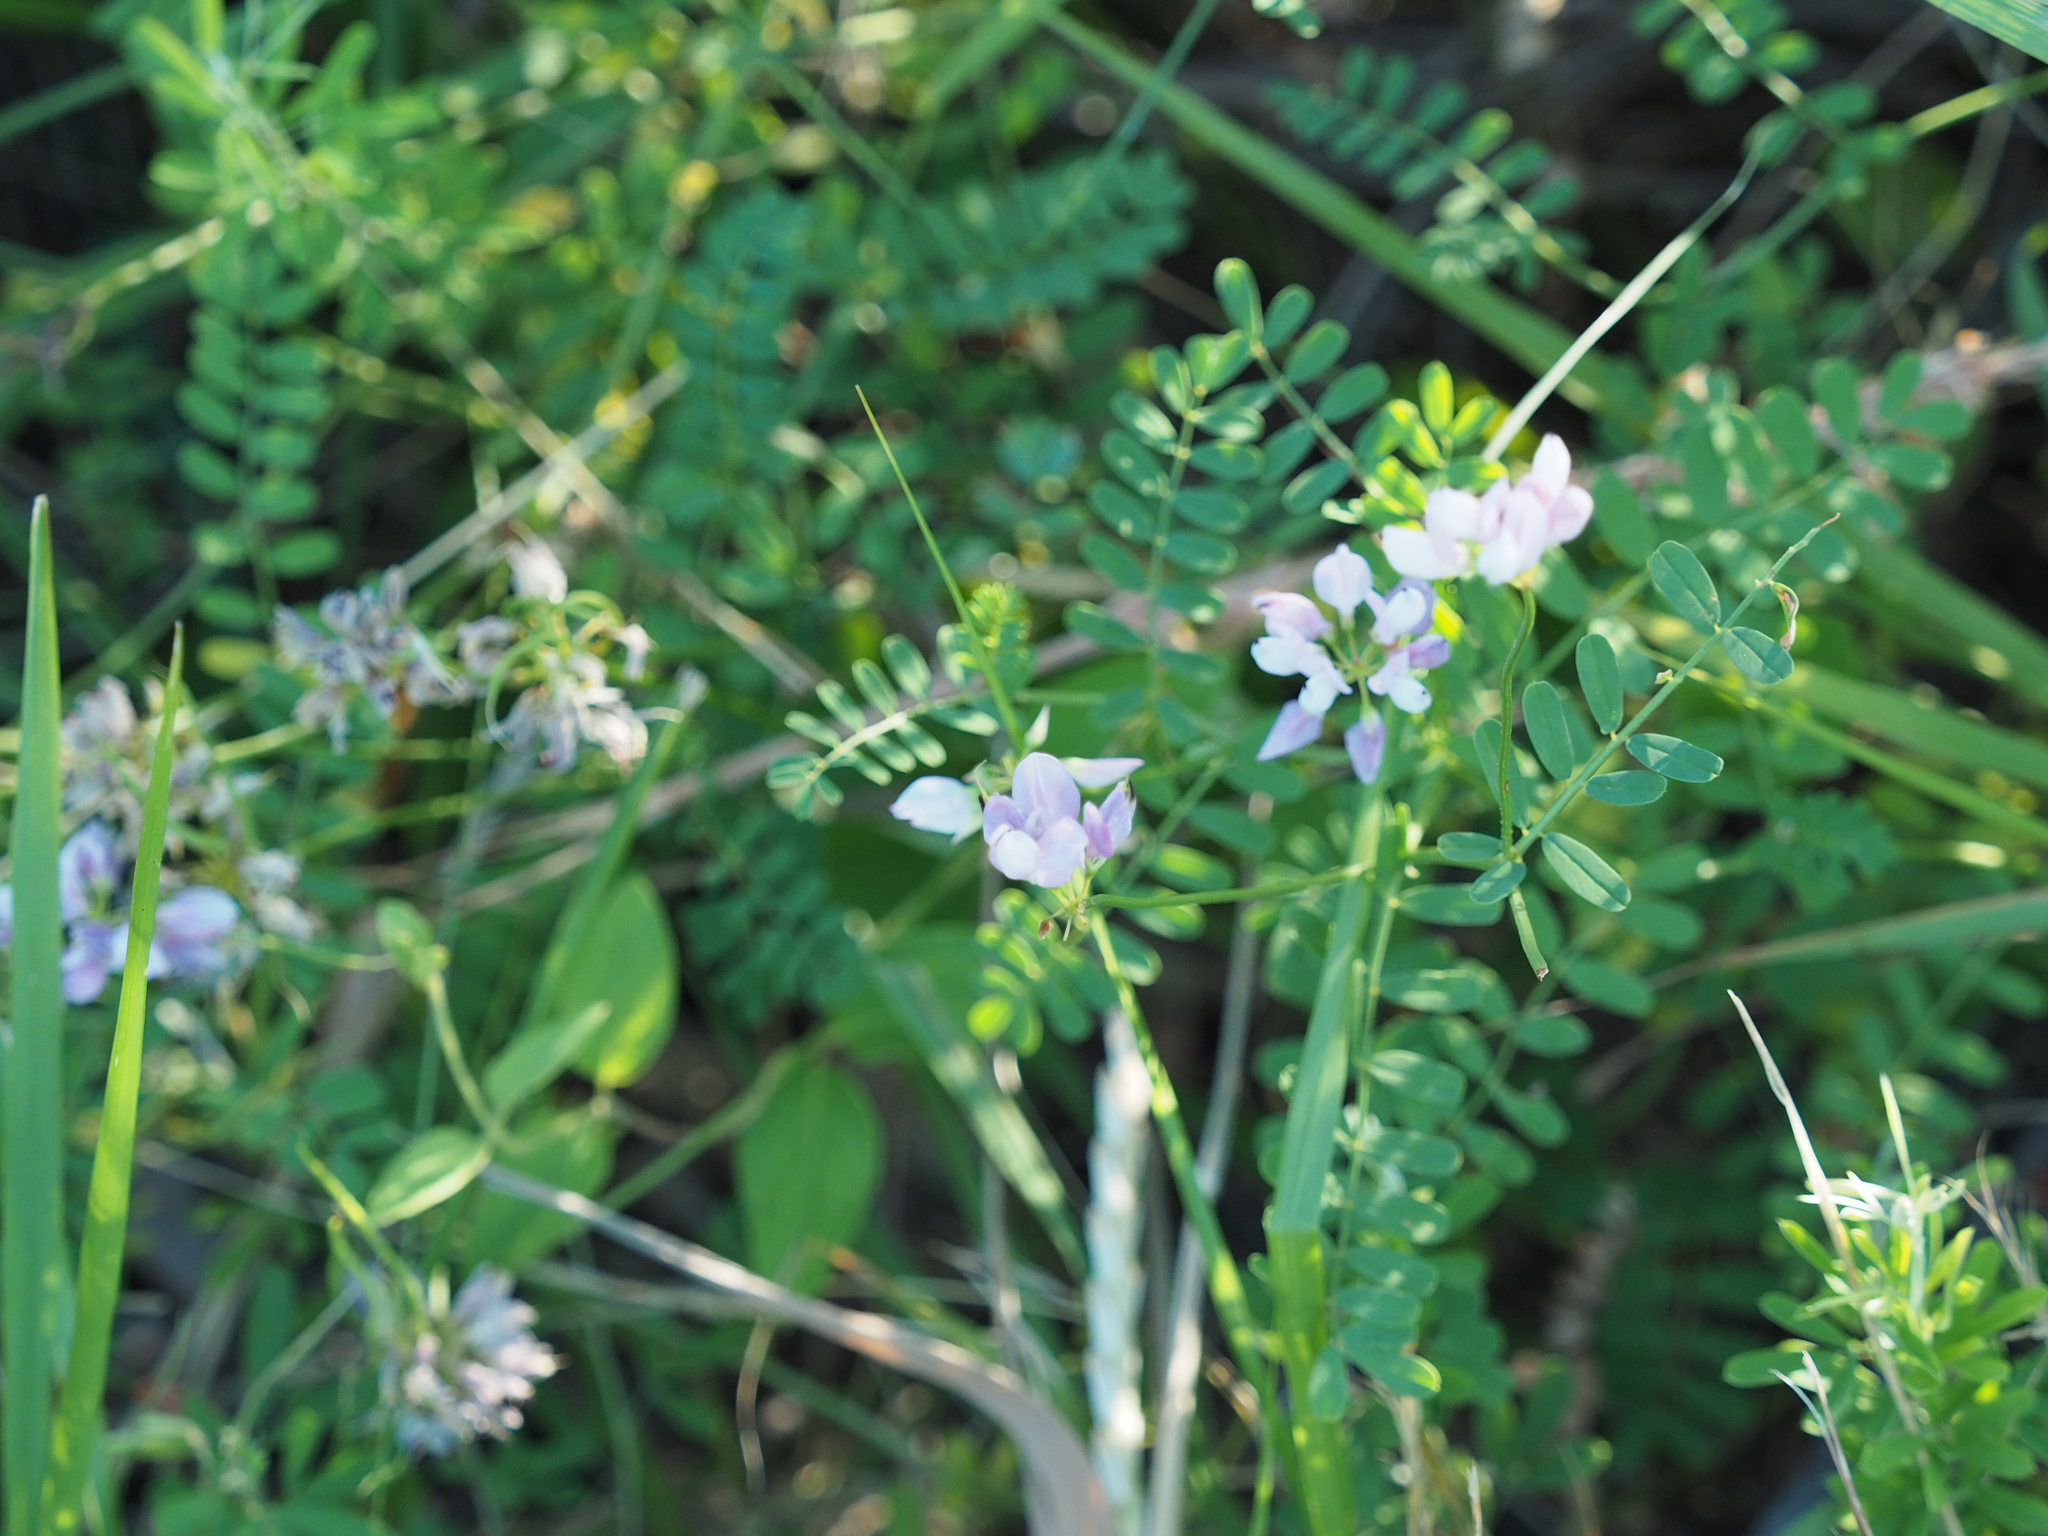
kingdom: Plantae
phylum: Tracheophyta
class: Magnoliopsida
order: Fabales
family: Fabaceae
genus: Coronilla
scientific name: Coronilla varia
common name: Crownvetch
